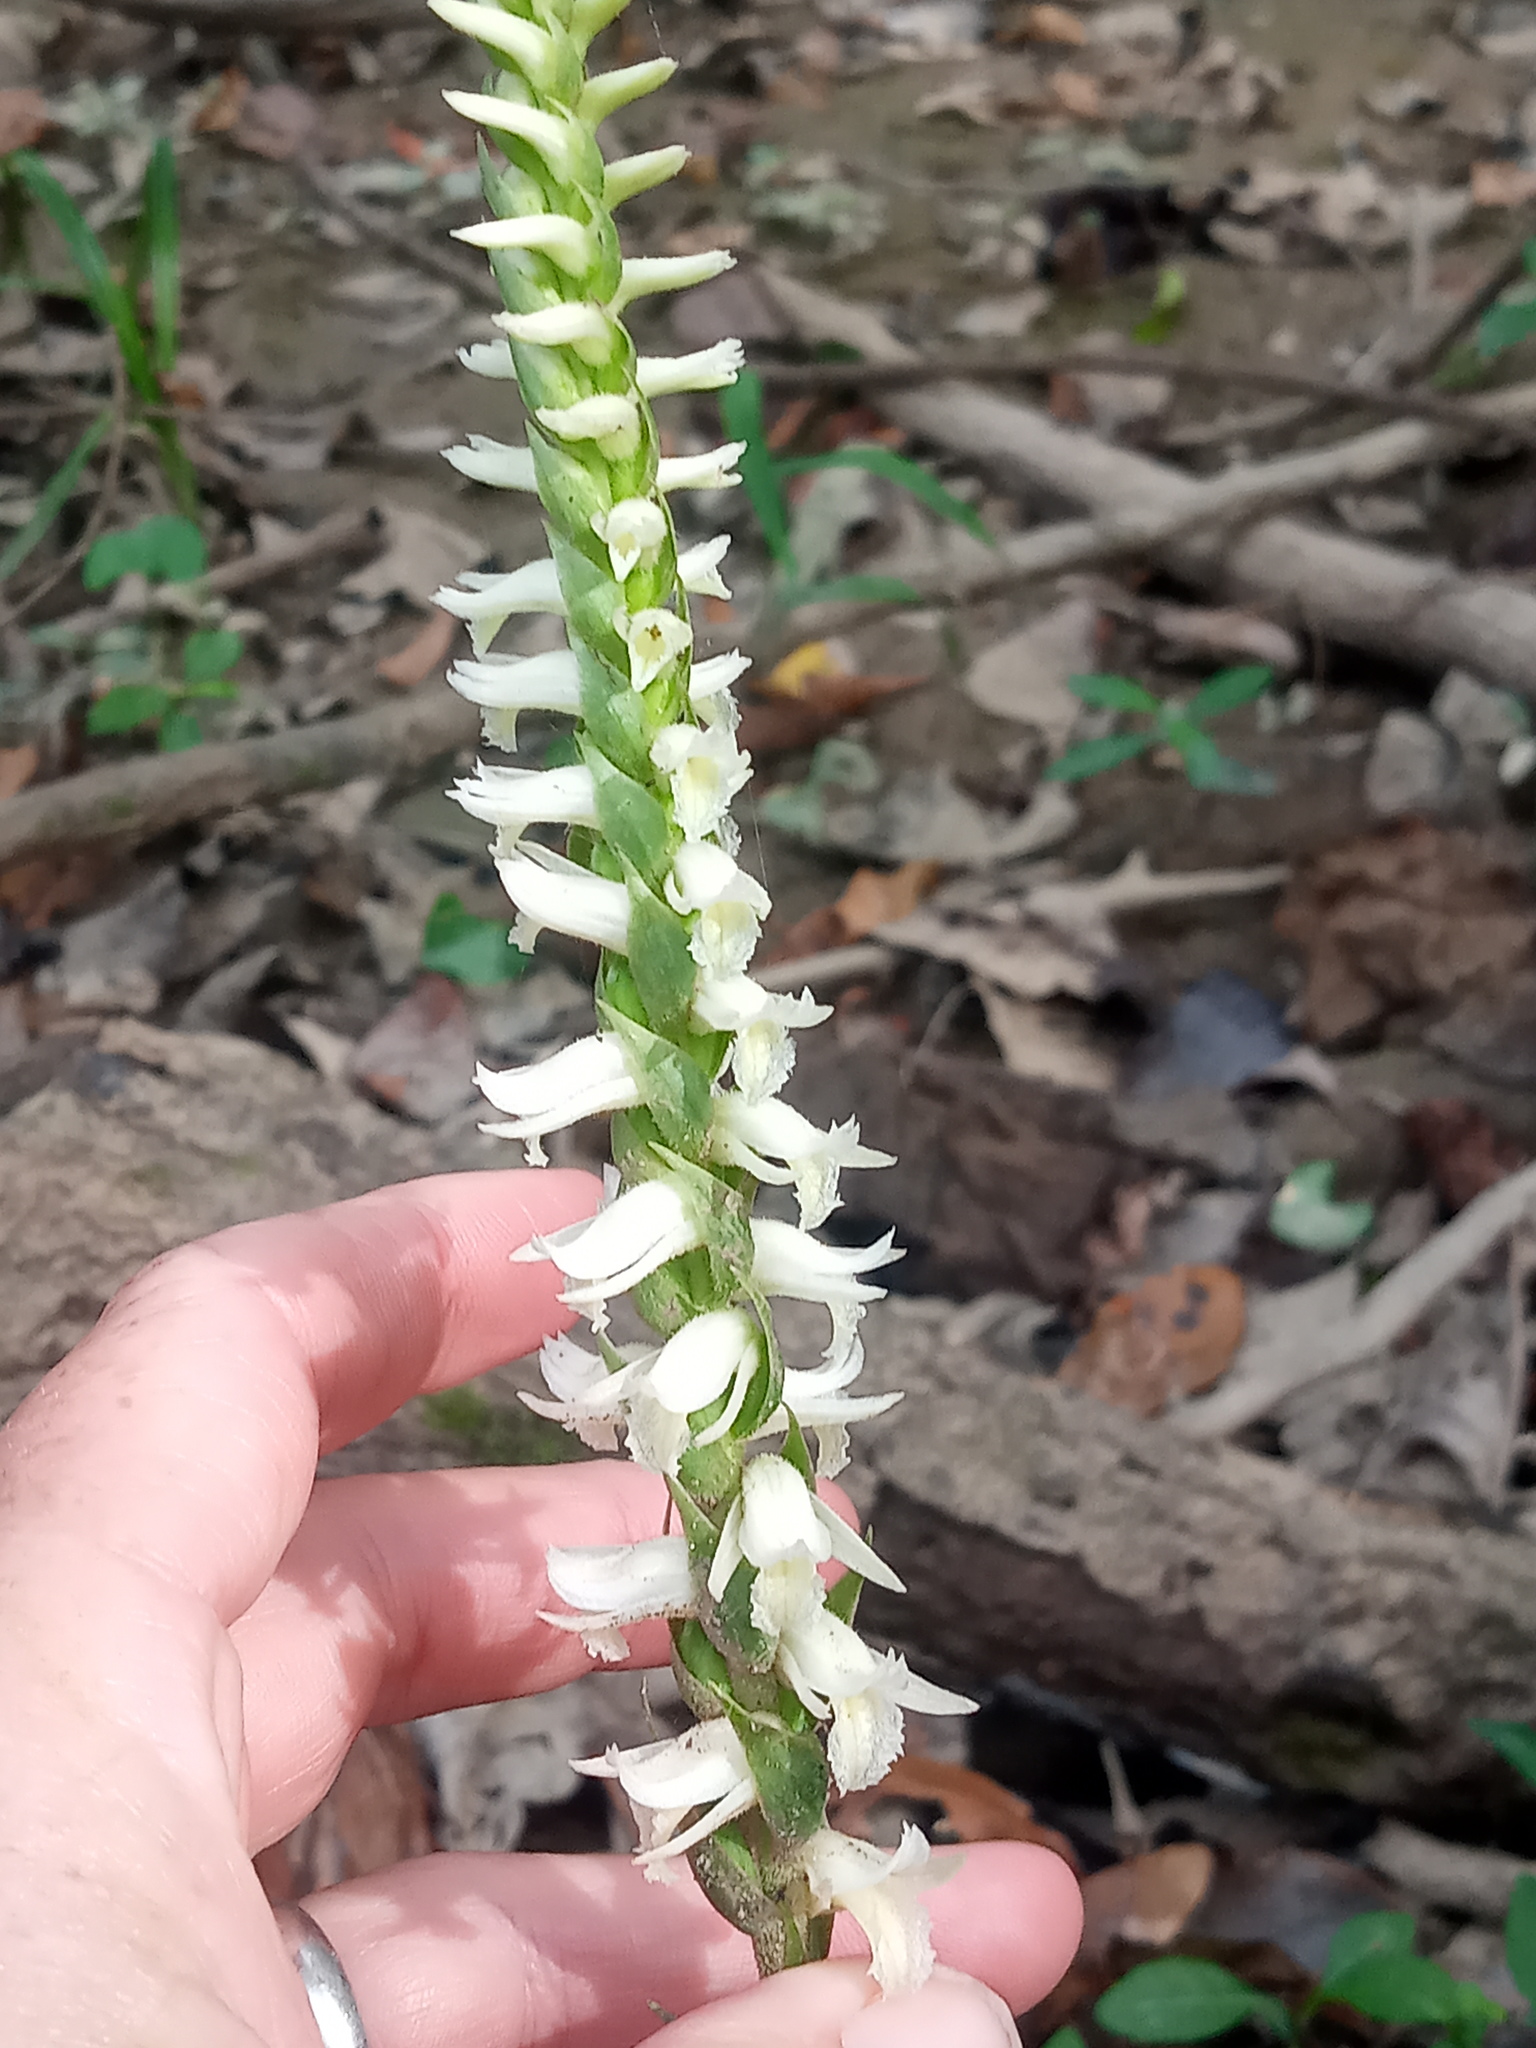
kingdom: Plantae
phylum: Tracheophyta
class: Liliopsida
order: Asparagales
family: Orchidaceae
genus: Spiranthes
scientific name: Spiranthes odorata
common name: Marsh ladies'-tresses
